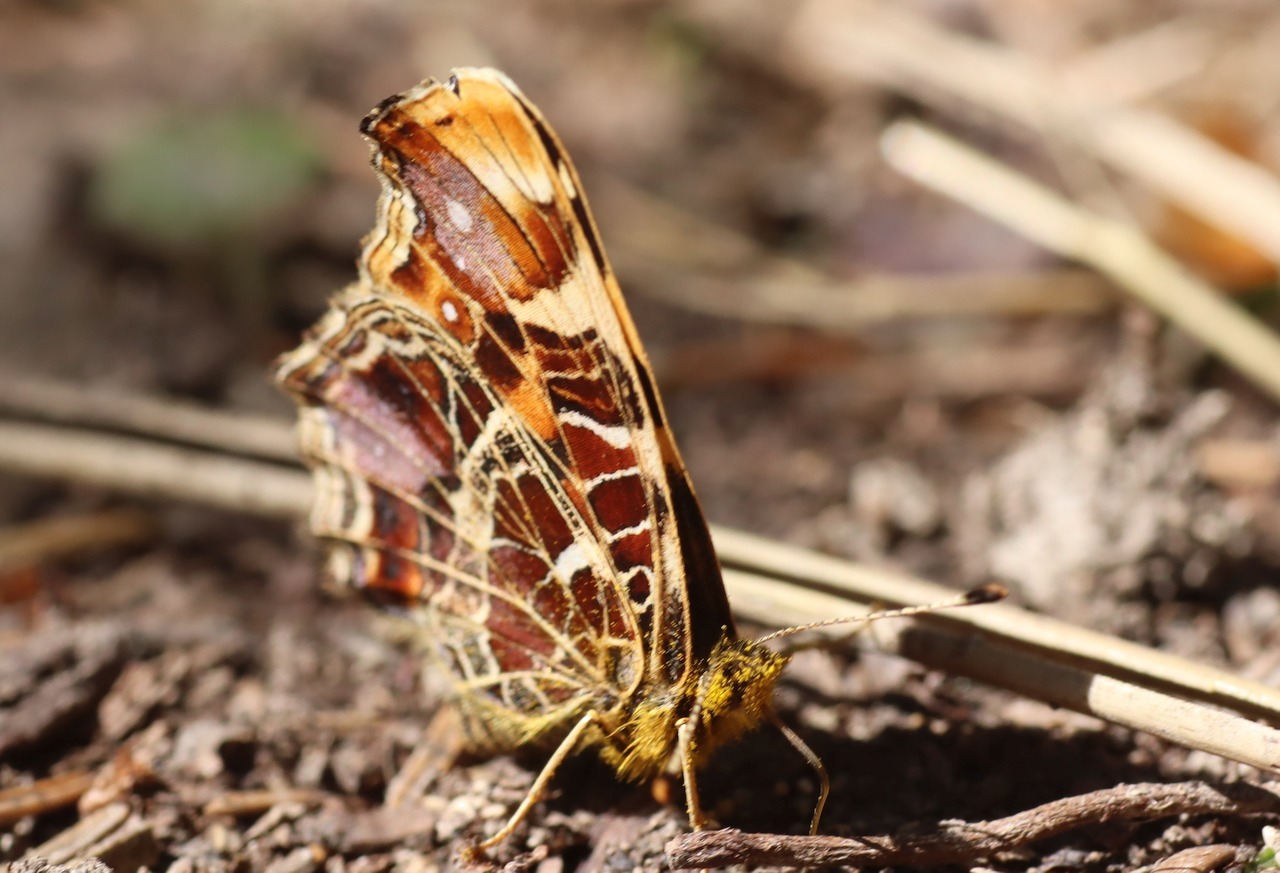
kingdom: Animalia
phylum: Arthropoda
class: Insecta
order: Lepidoptera
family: Nymphalidae
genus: Araschnia
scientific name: Araschnia levana
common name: Map butterfly
